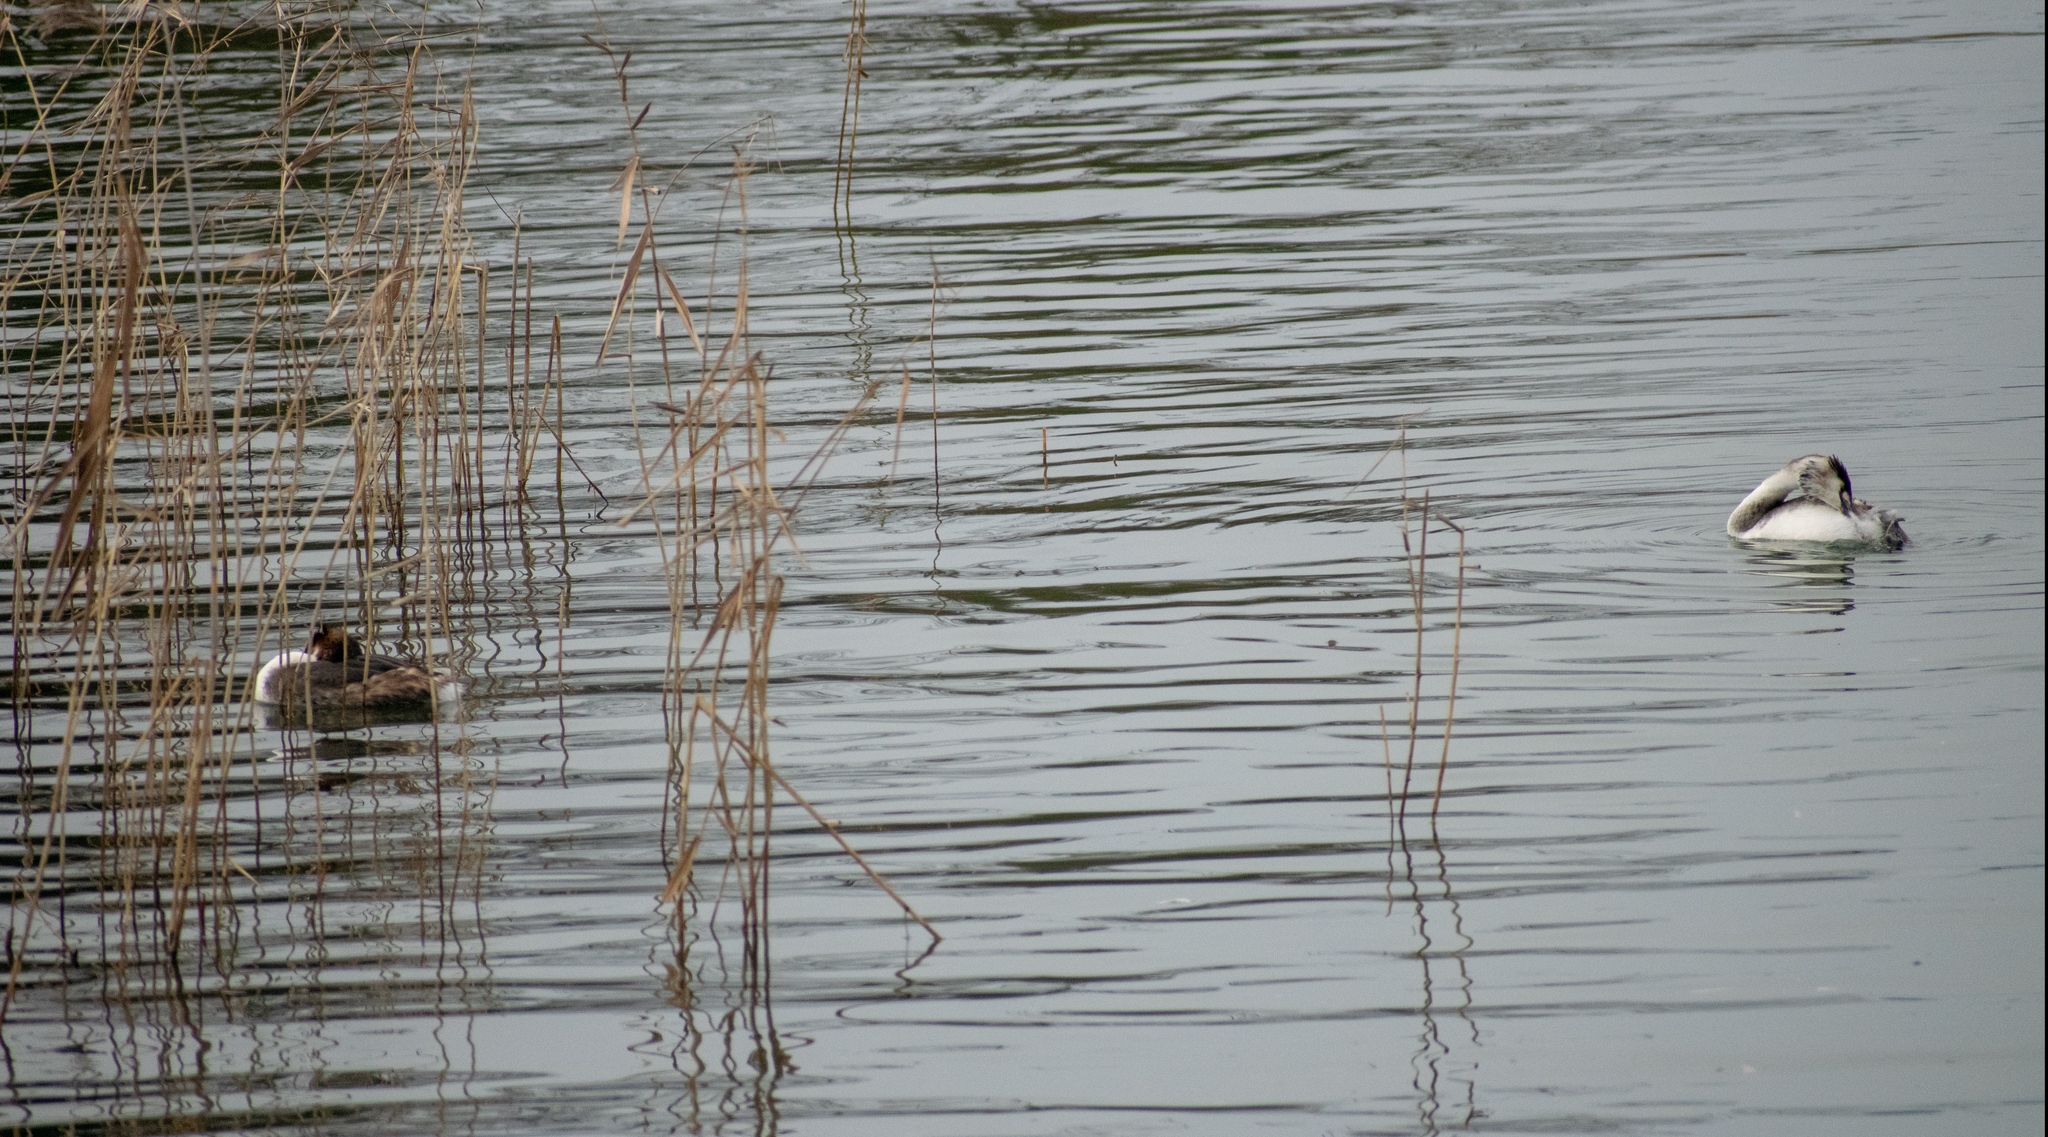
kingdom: Animalia
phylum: Chordata
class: Aves
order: Podicipediformes
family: Podicipedidae
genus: Podiceps
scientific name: Podiceps cristatus
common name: Great crested grebe
